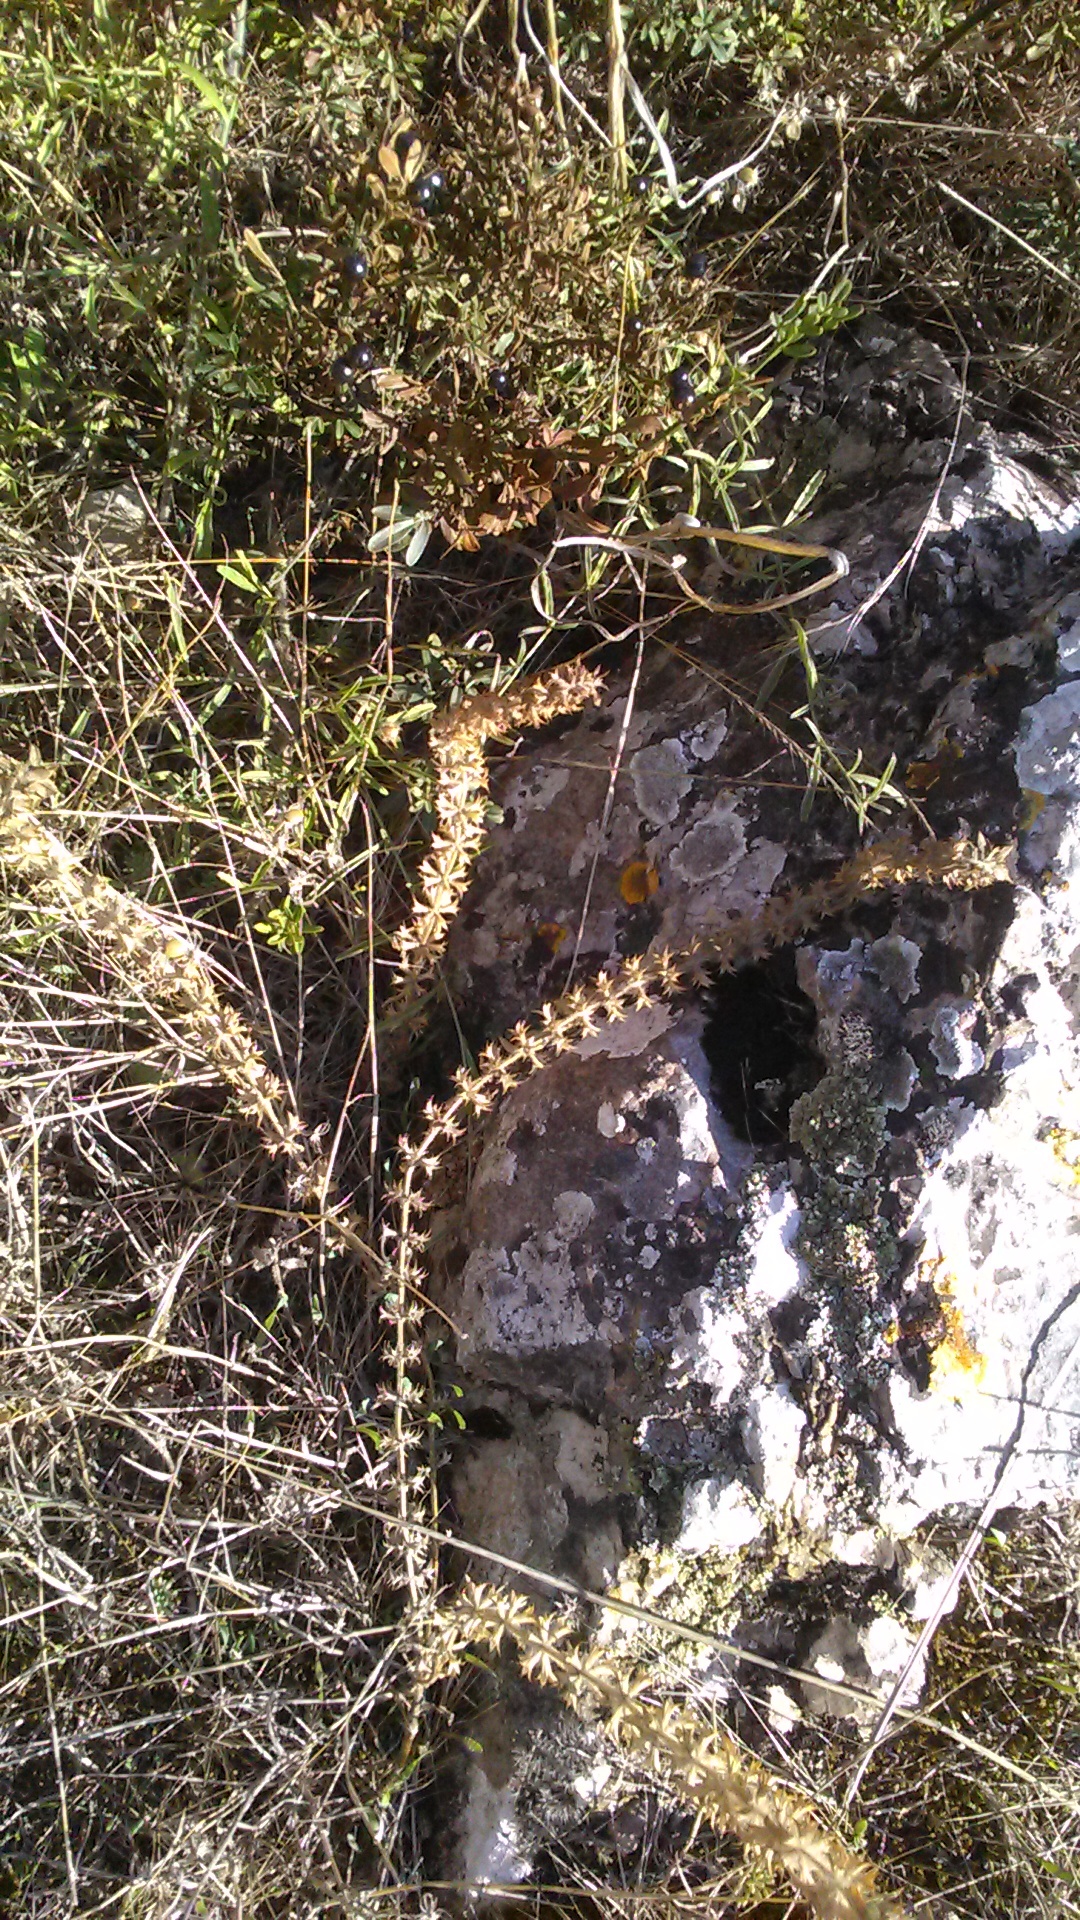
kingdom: Plantae
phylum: Tracheophyta
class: Magnoliopsida
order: Lamiales
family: Lamiaceae
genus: Sideritis
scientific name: Sideritis montana
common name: Mountain ironwort
